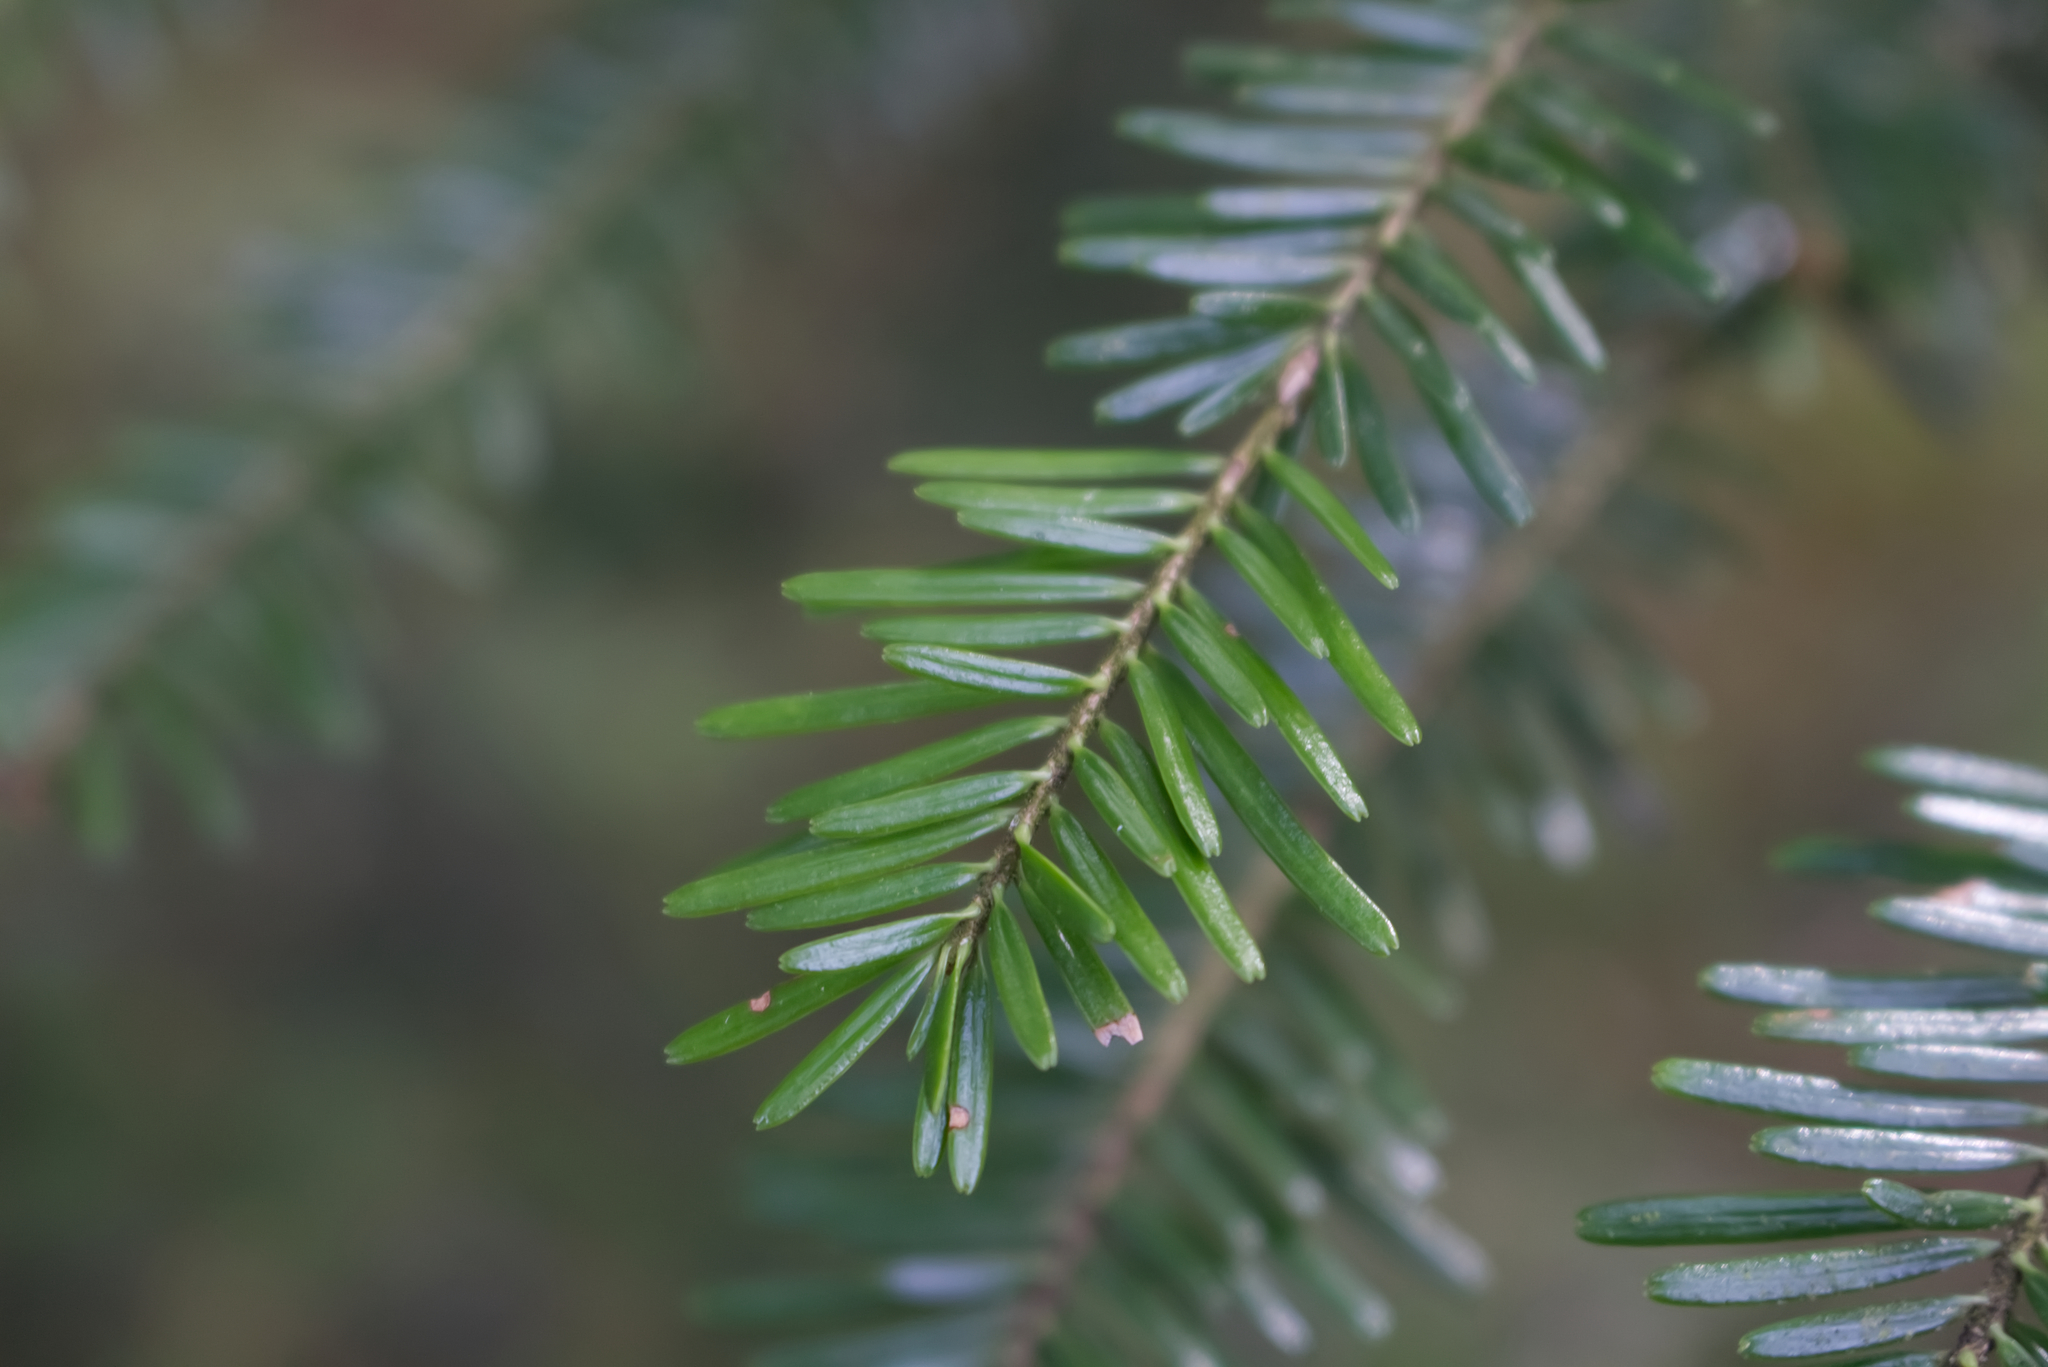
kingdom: Plantae
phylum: Tracheophyta
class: Pinopsida
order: Pinales
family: Pinaceae
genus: Abies
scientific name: Abies alba
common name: Silver fir
